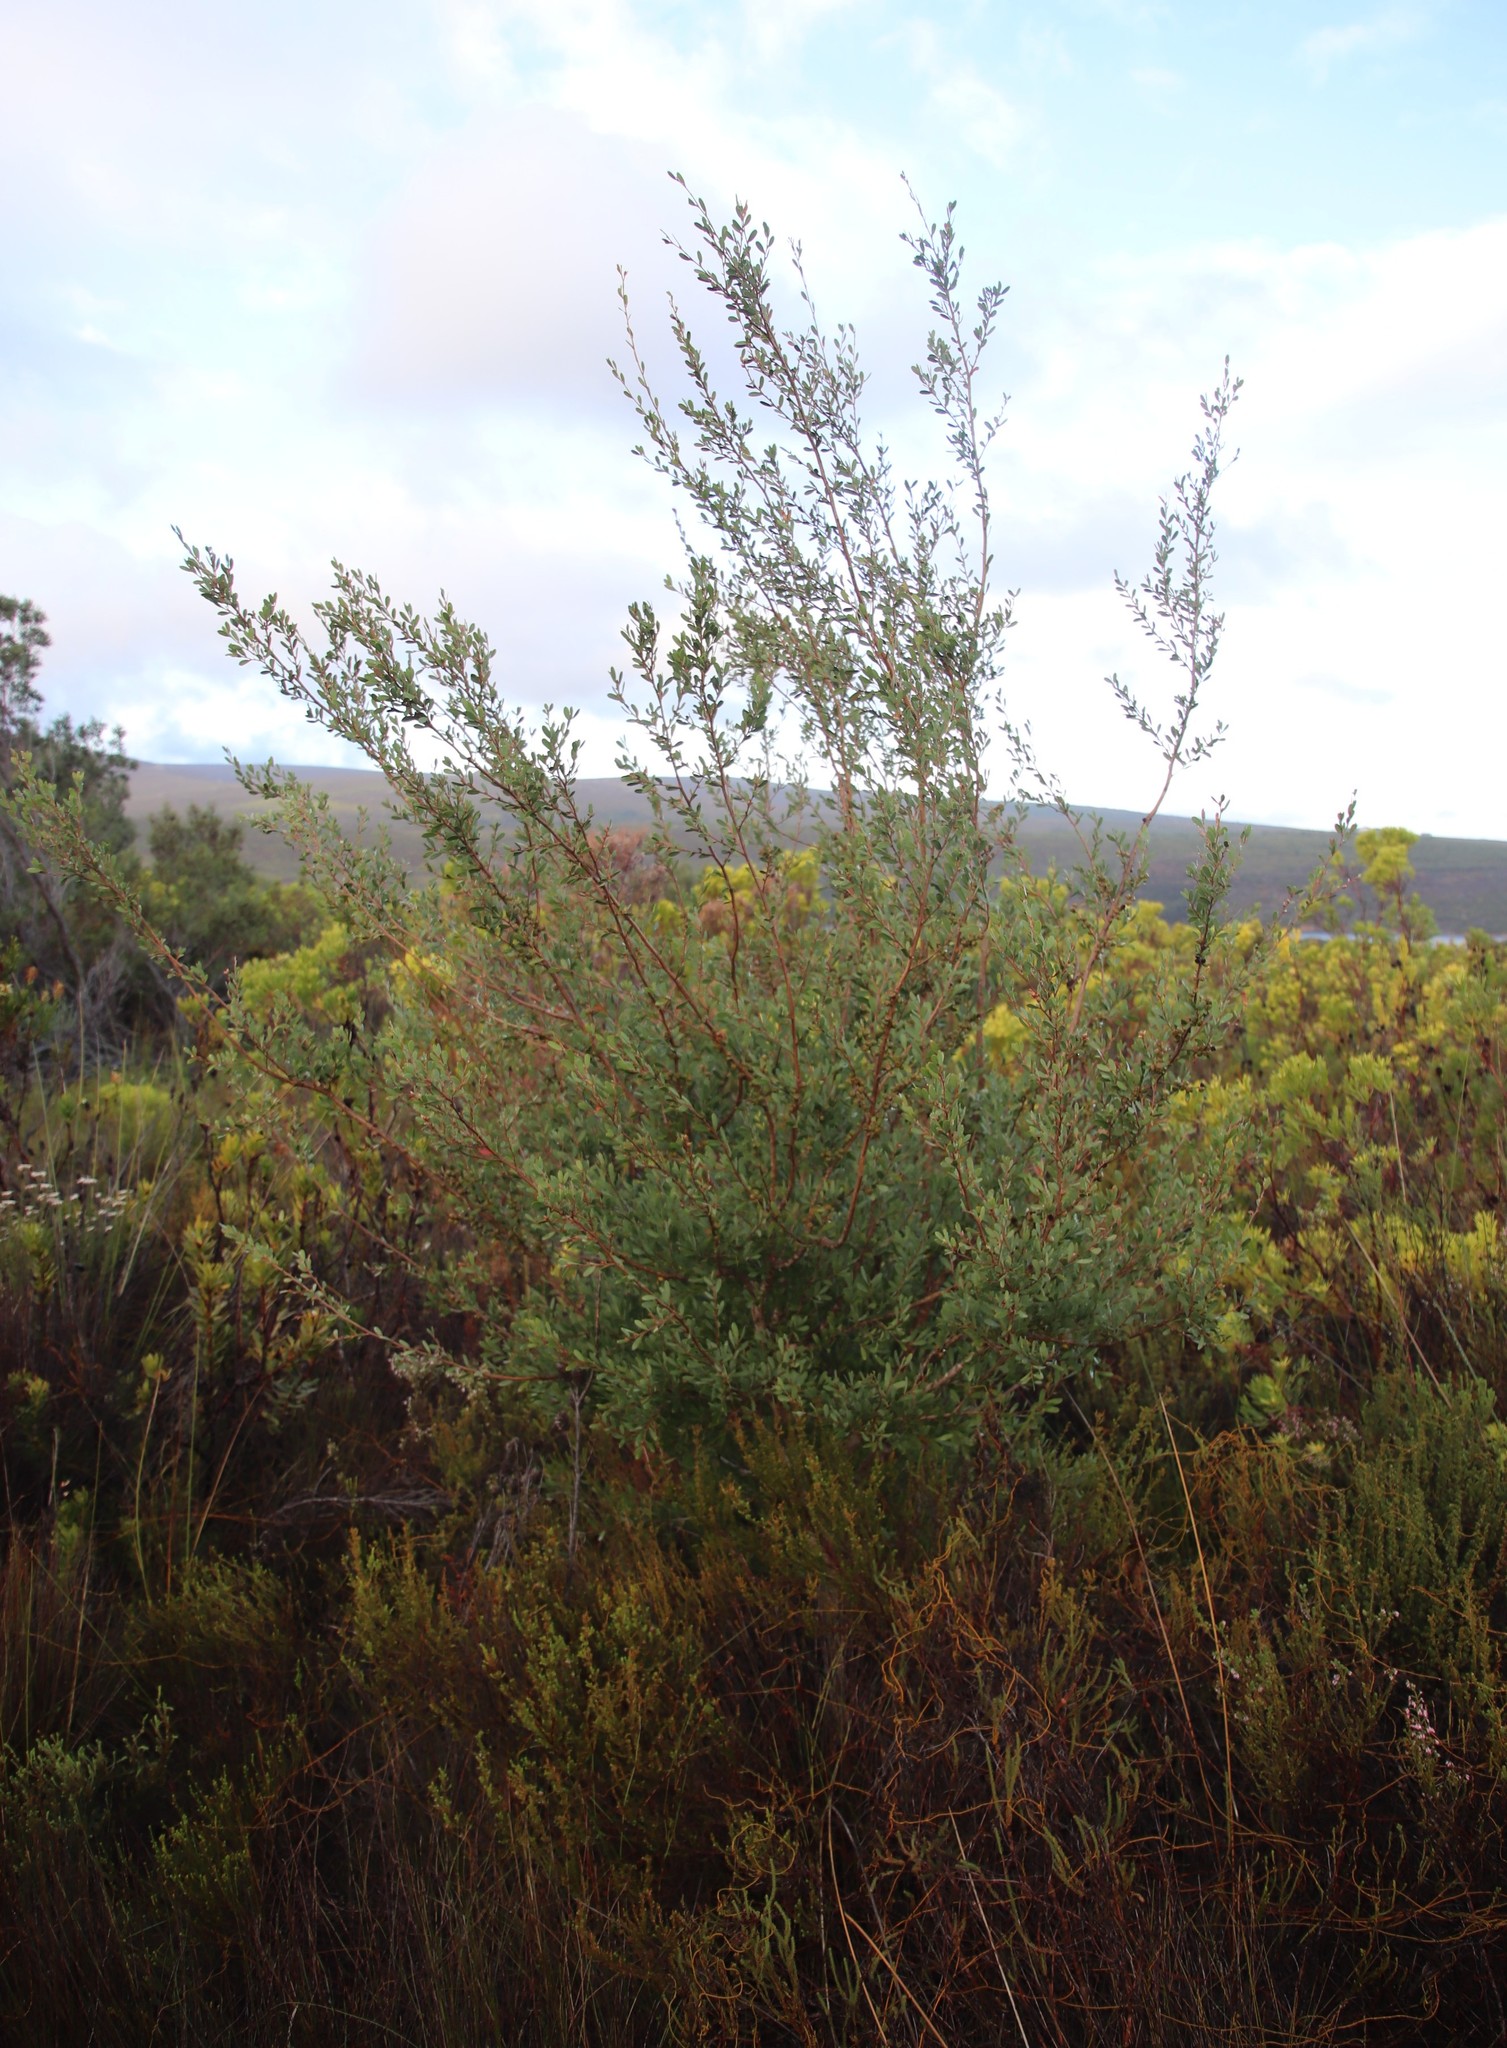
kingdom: Plantae
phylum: Tracheophyta
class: Magnoliopsida
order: Myrtales
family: Myrtaceae
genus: Leptospermum
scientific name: Leptospermum laevigatum
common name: Australian teatree
